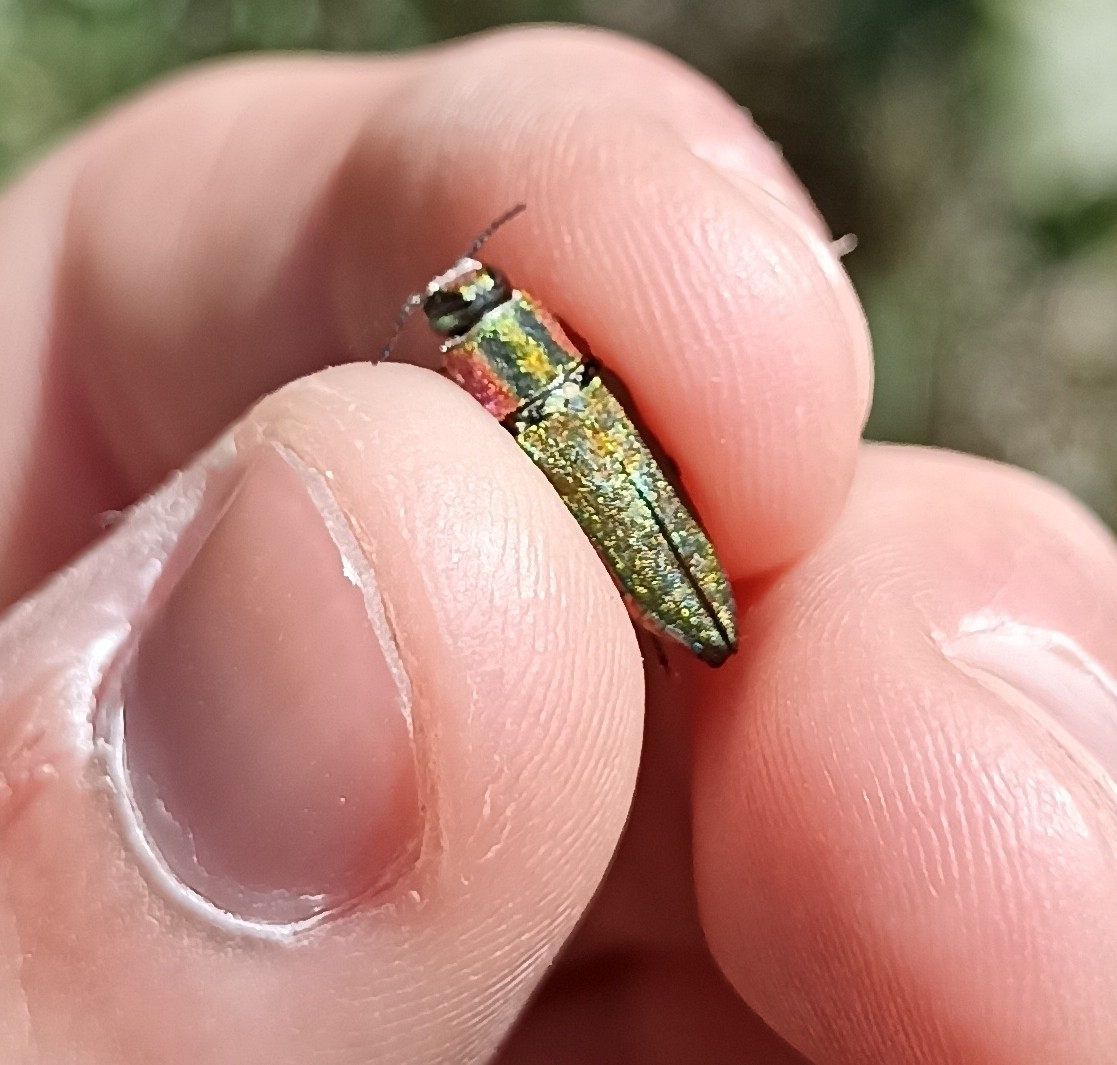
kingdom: Animalia
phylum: Arthropoda
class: Insecta
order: Coleoptera
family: Buprestidae
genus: Anthaxia
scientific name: Anthaxia hungarica
